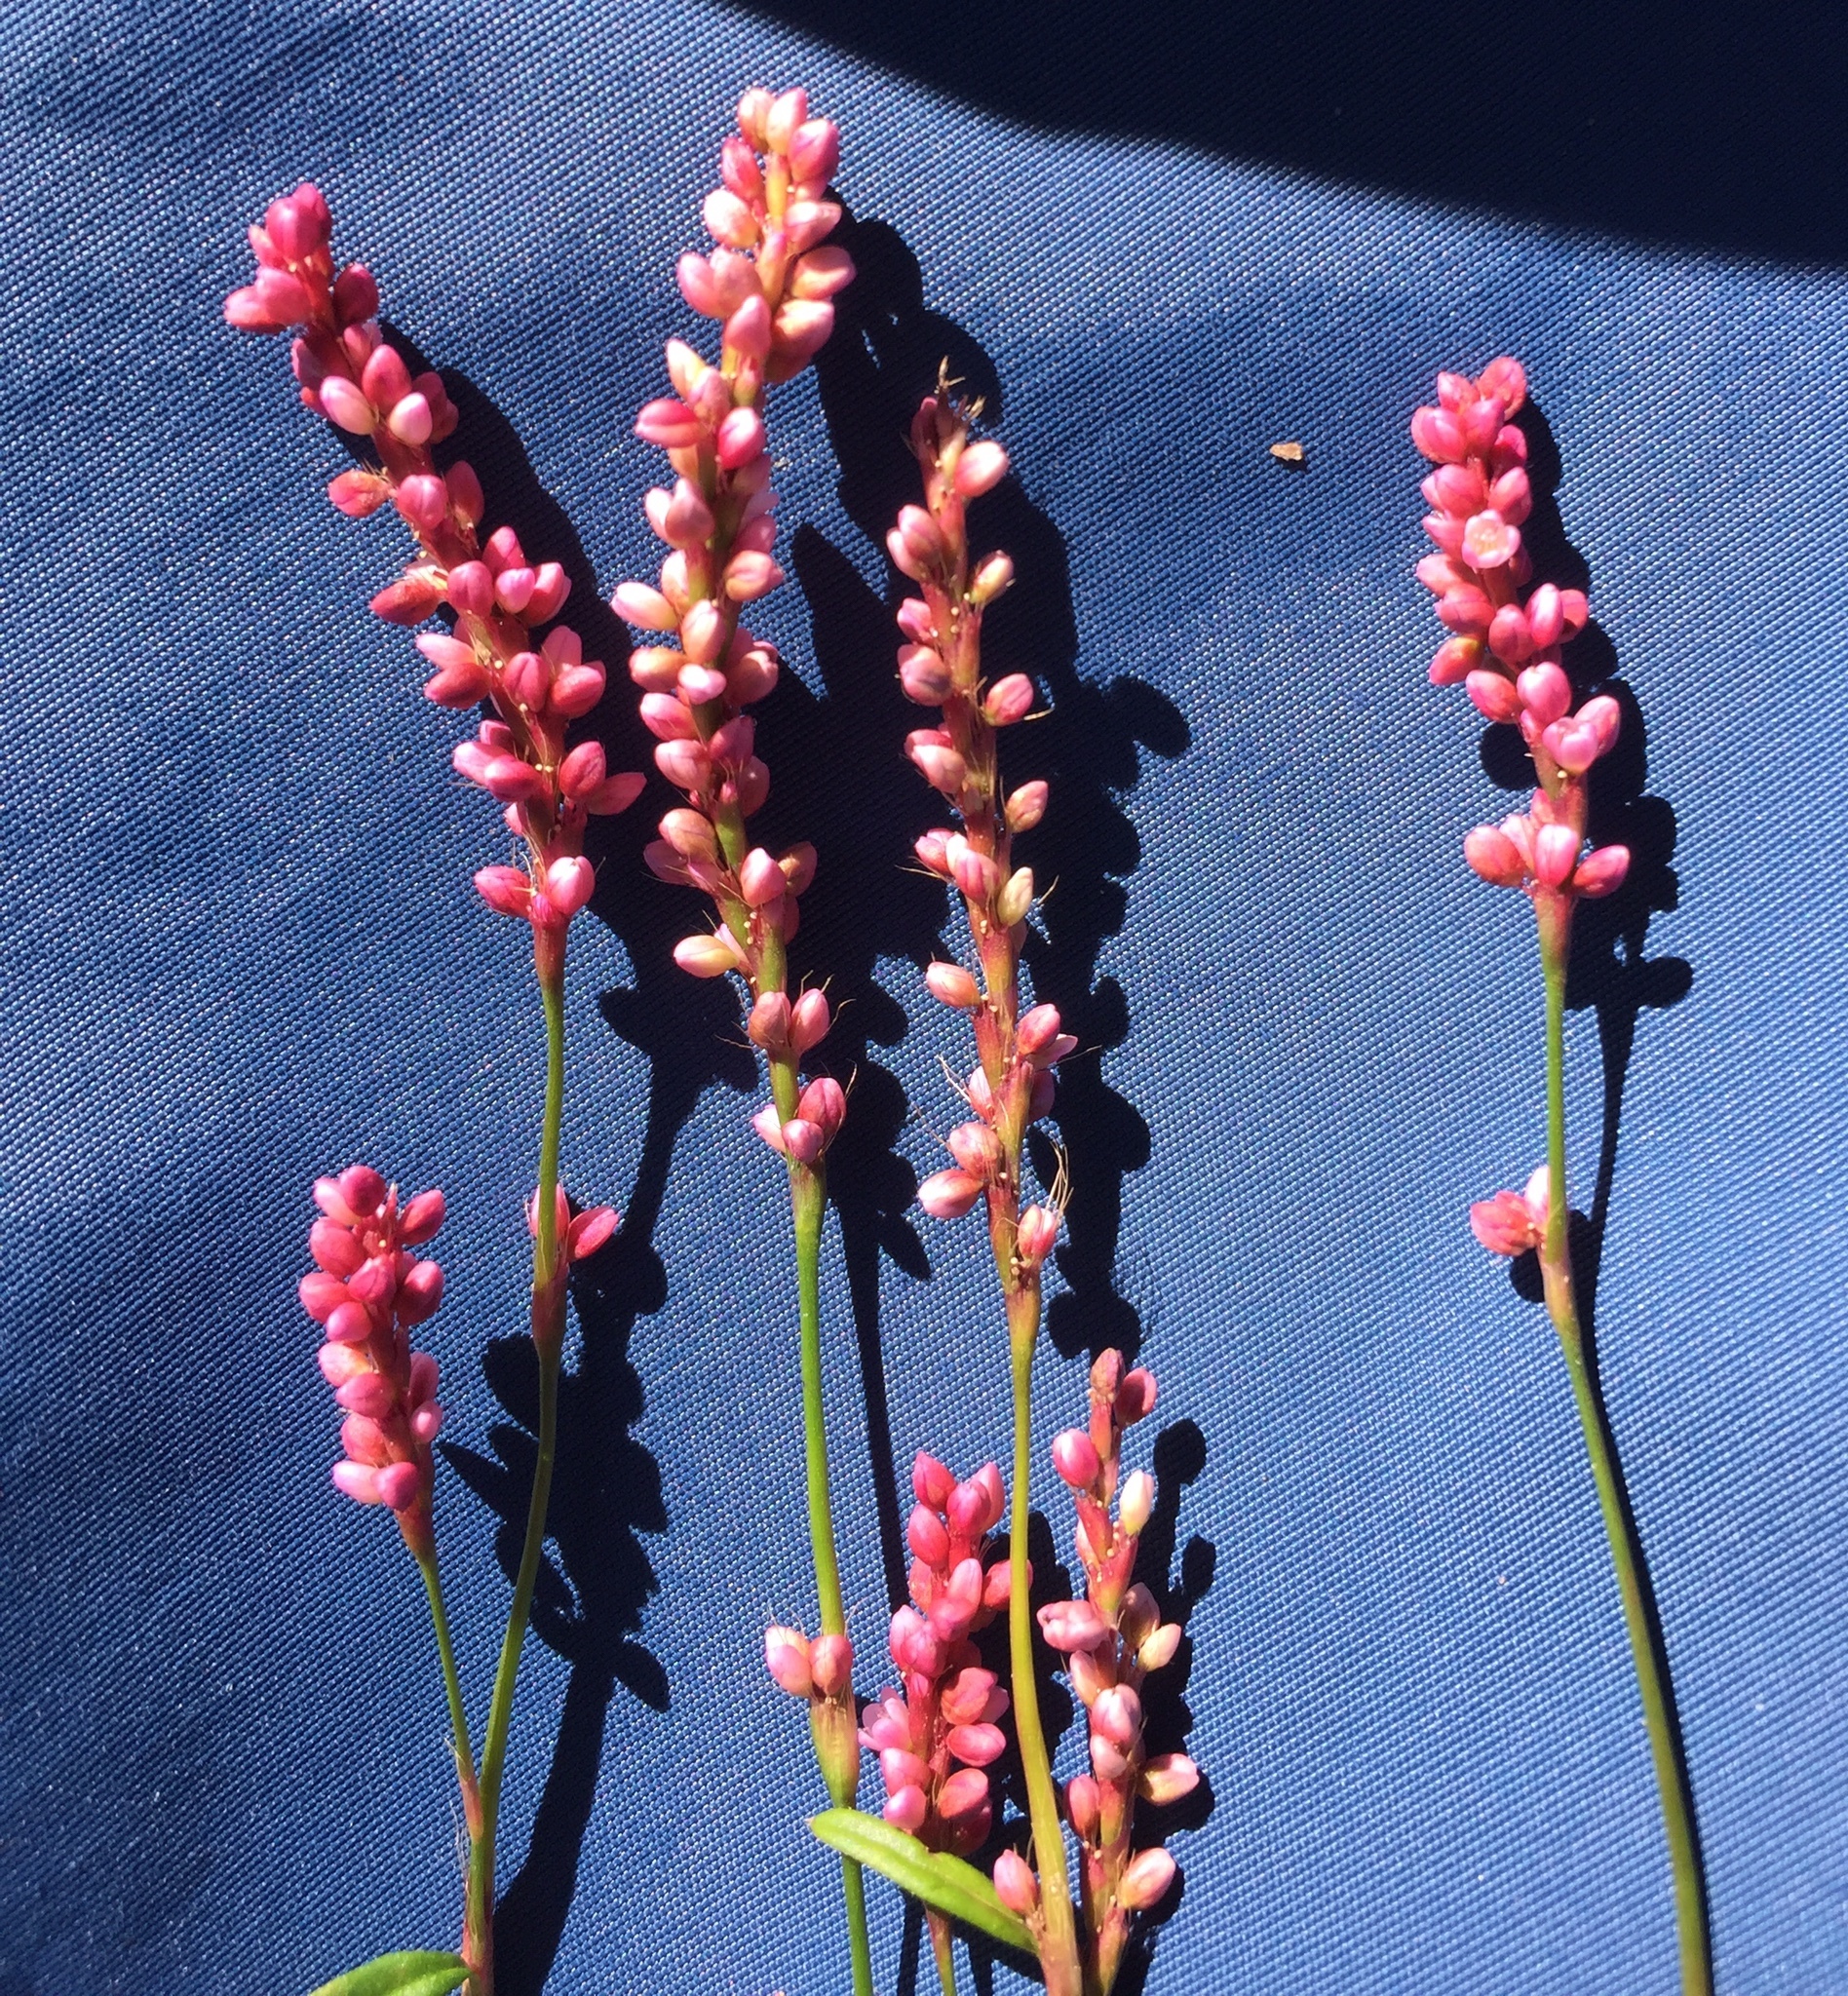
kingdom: Plantae
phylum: Tracheophyta
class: Magnoliopsida
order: Caryophyllales
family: Polygonaceae
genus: Persicaria
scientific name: Persicaria longiseta
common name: Bristly lady's-thumb
